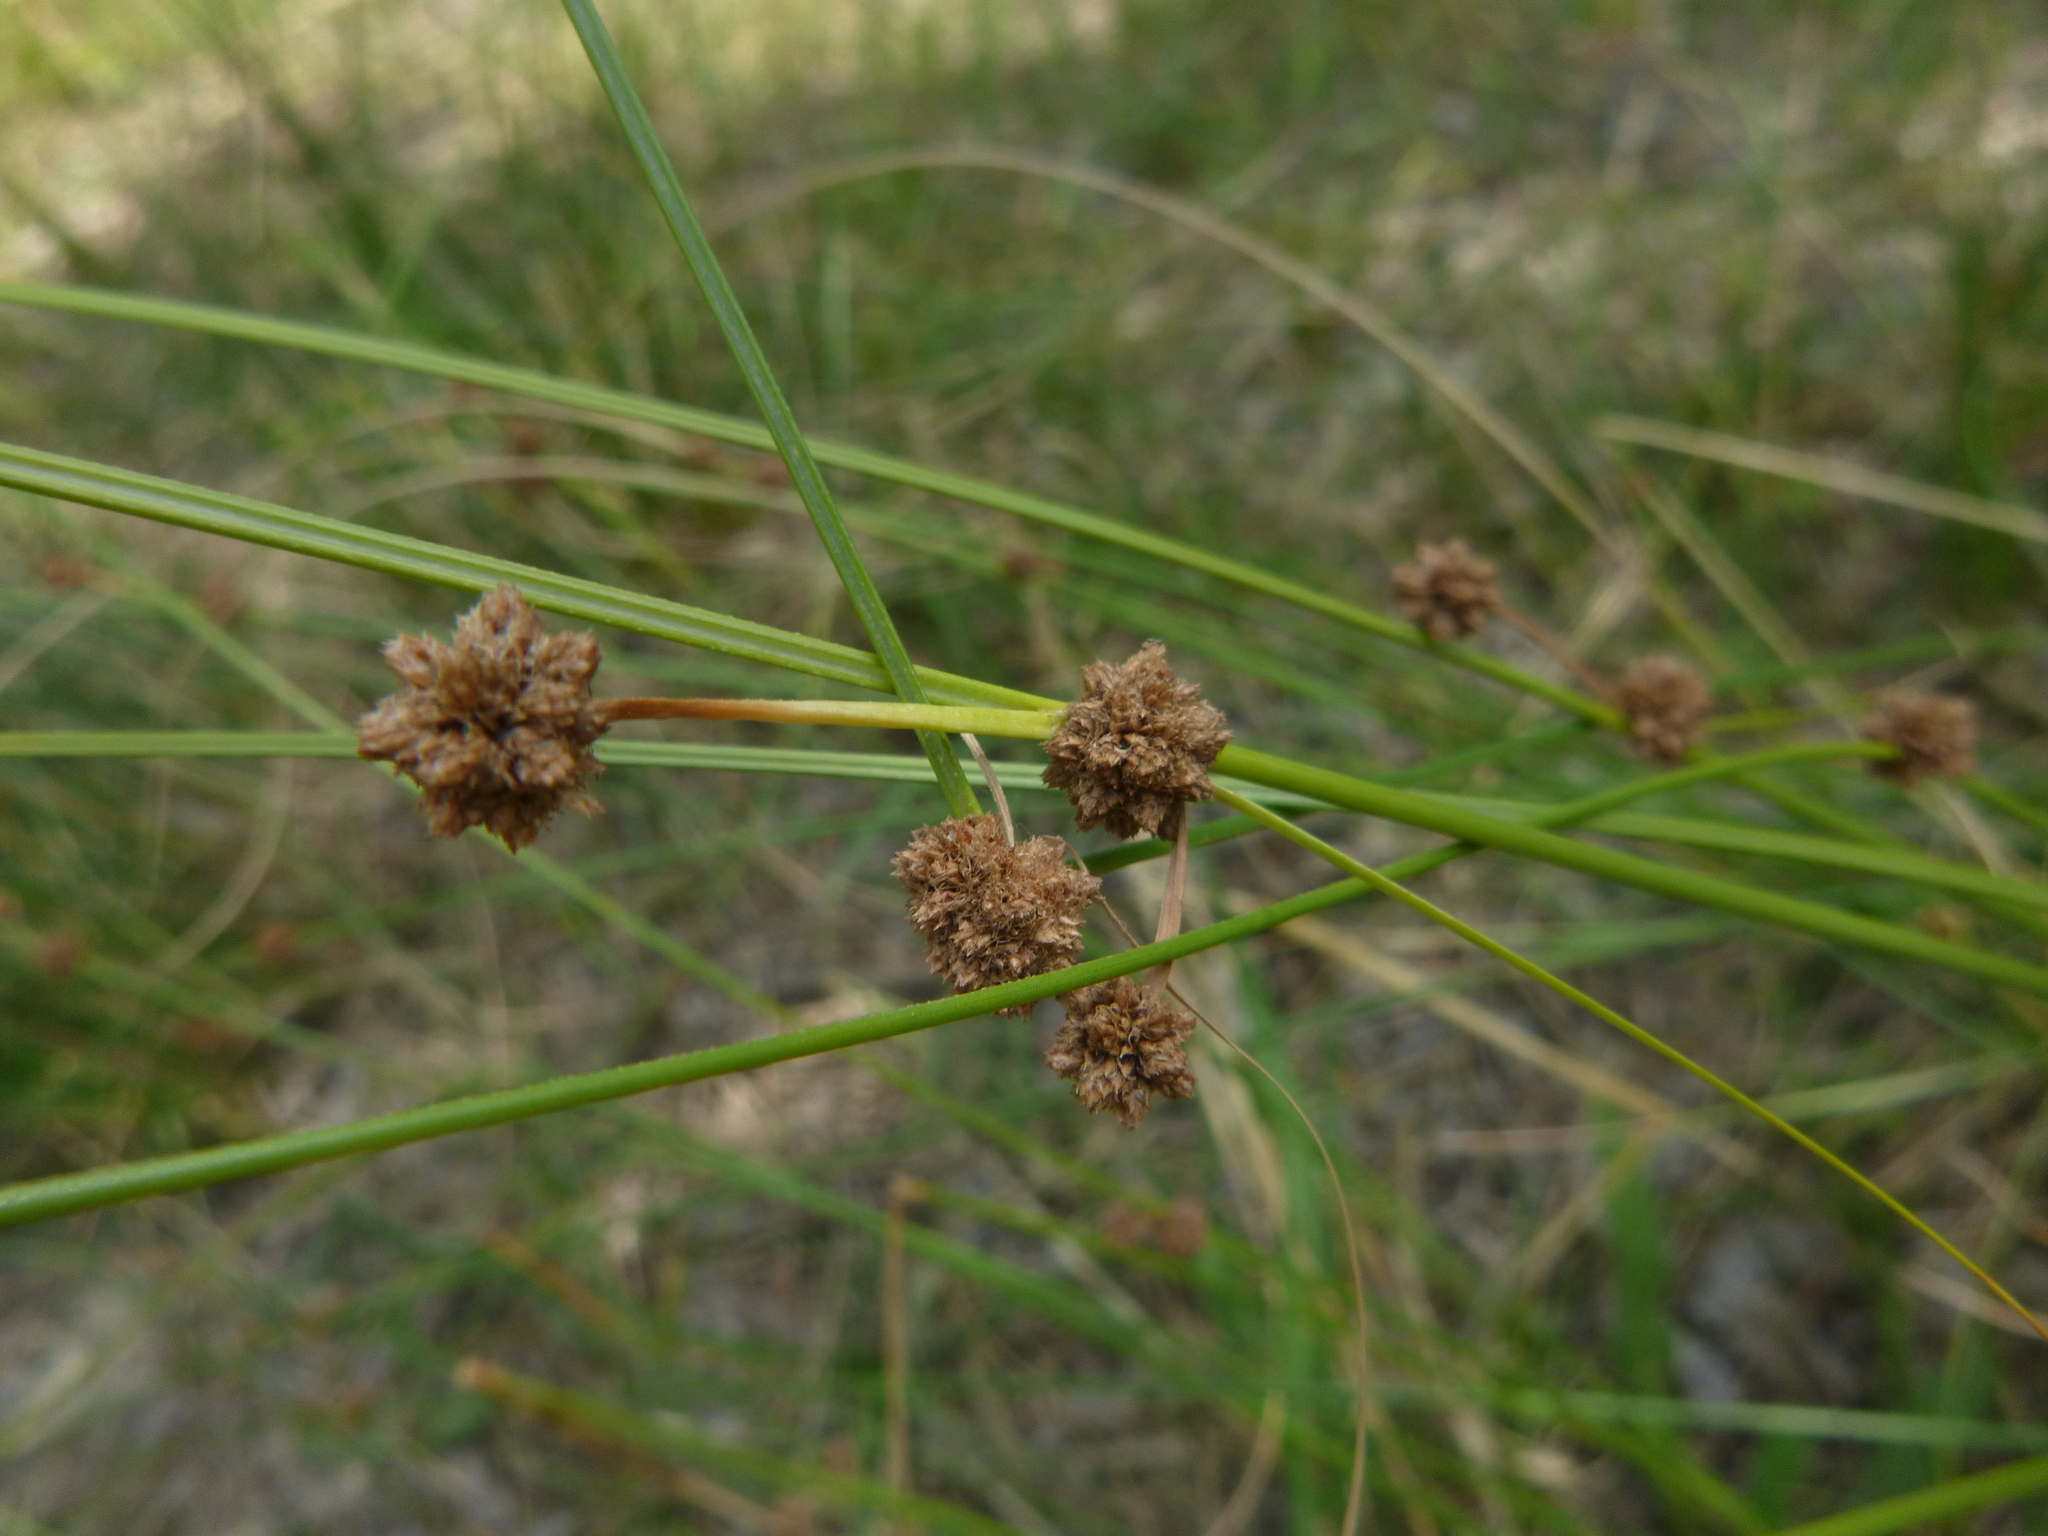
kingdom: Plantae
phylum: Tracheophyta
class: Liliopsida
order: Poales
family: Cyperaceae
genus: Scirpoides
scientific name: Scirpoides holoschoenus
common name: Round-headed club-rush
